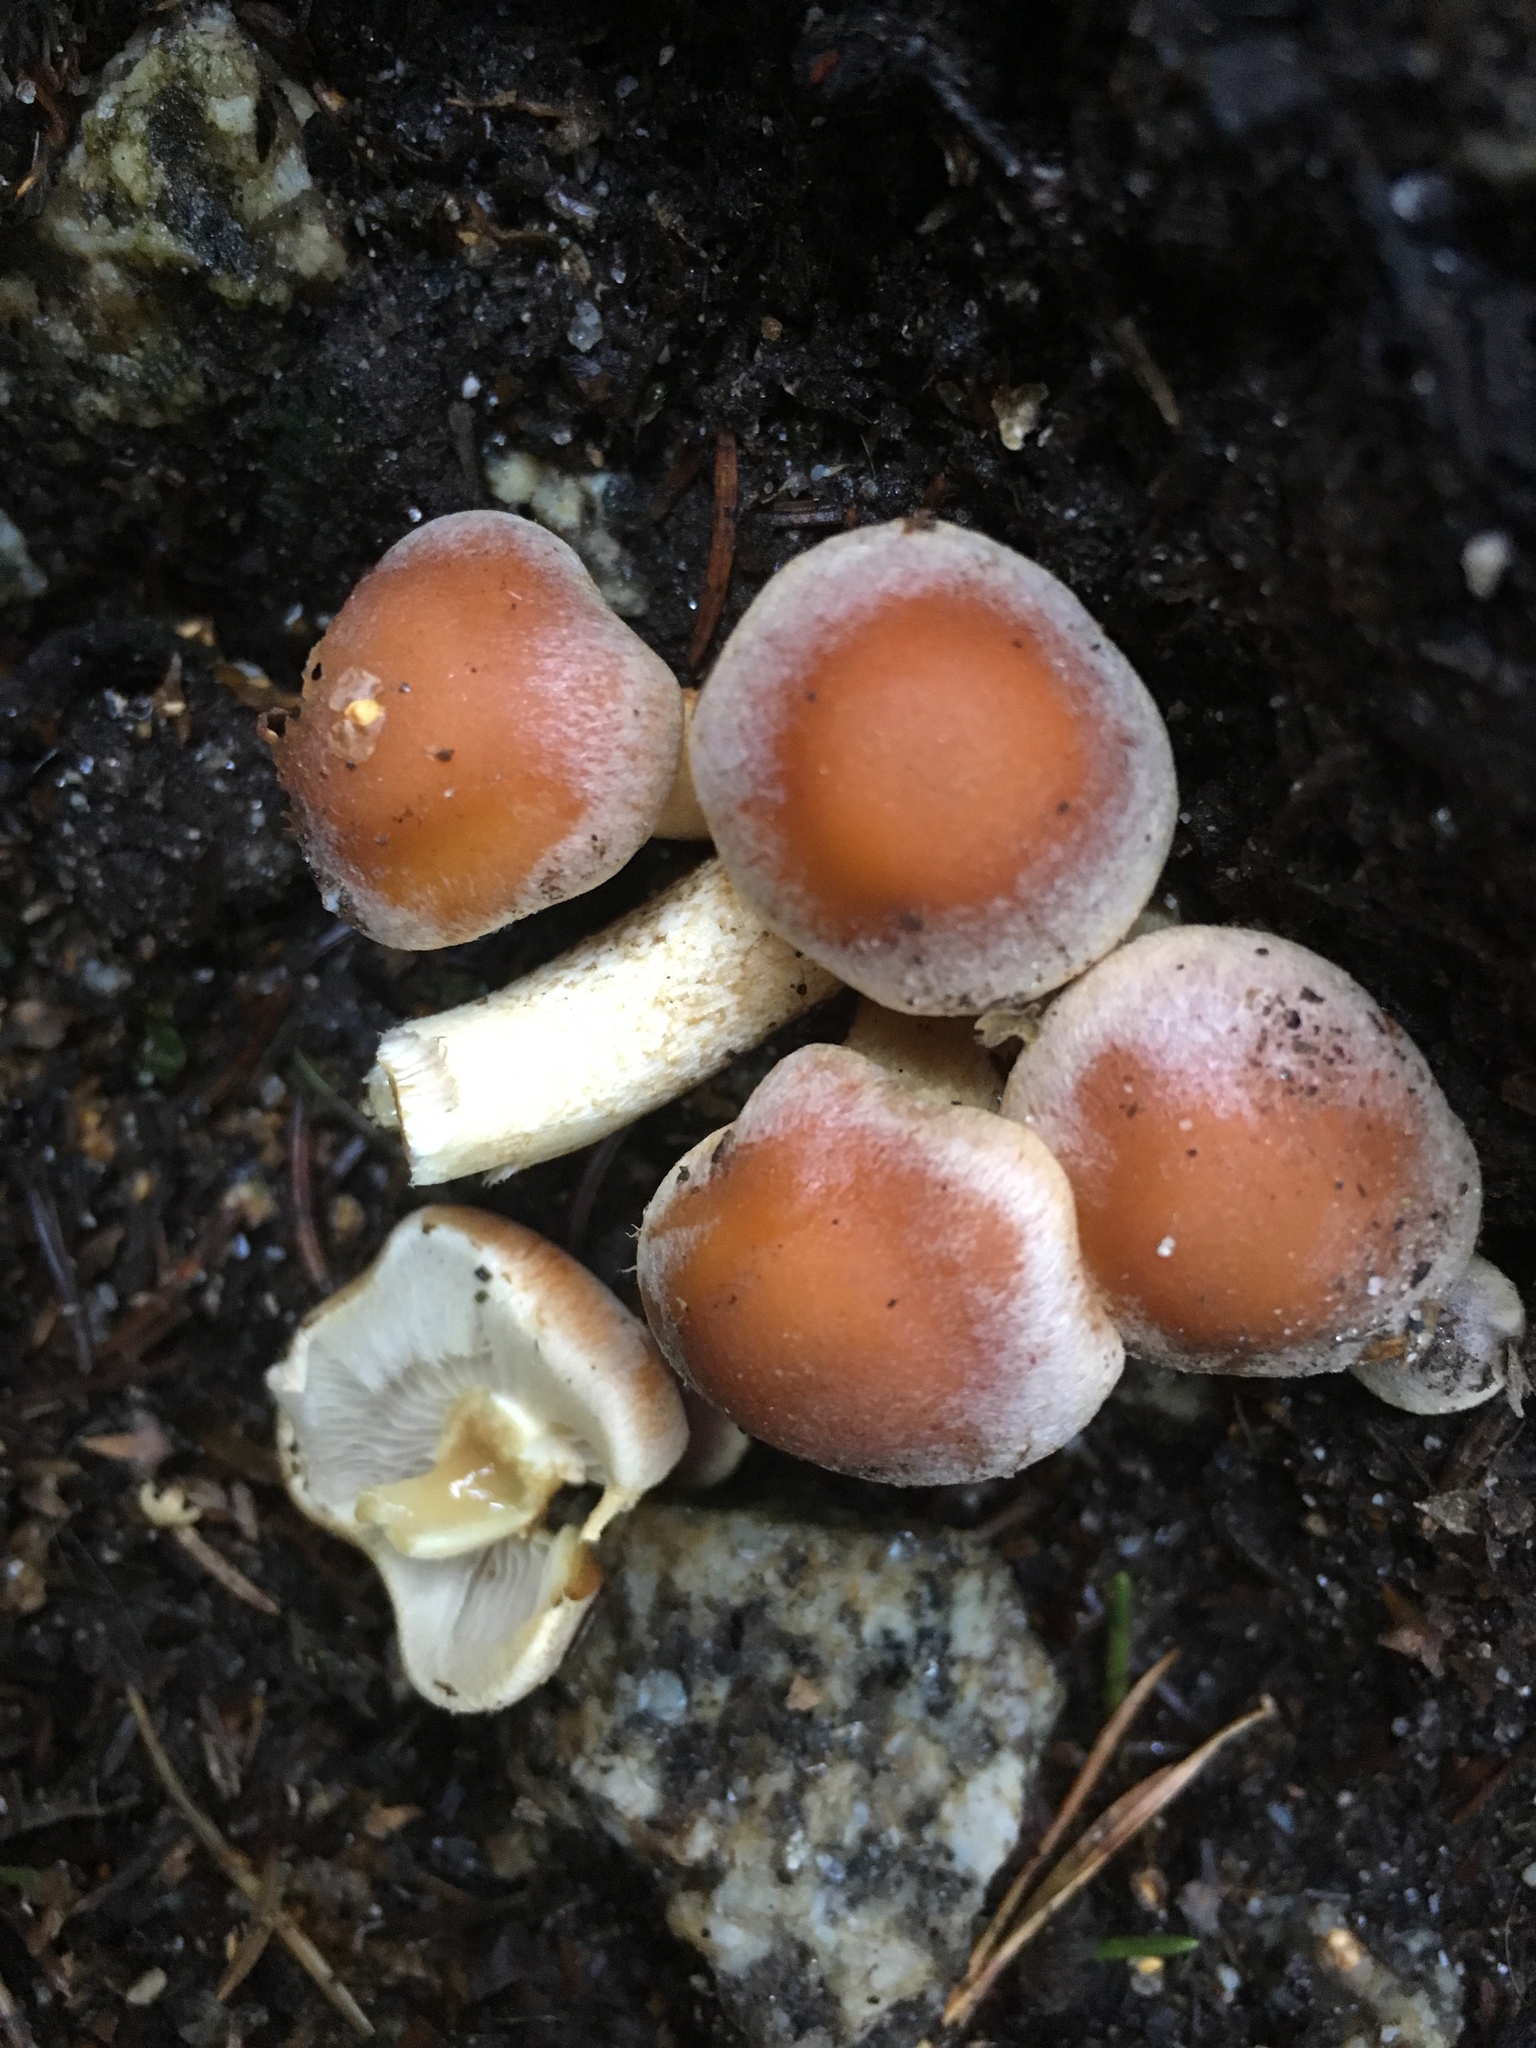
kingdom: Fungi
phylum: Basidiomycota
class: Agaricomycetes
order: Agaricales
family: Strophariaceae
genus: Hypholoma
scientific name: Hypholoma fasciculare
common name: Sulphur tuft
